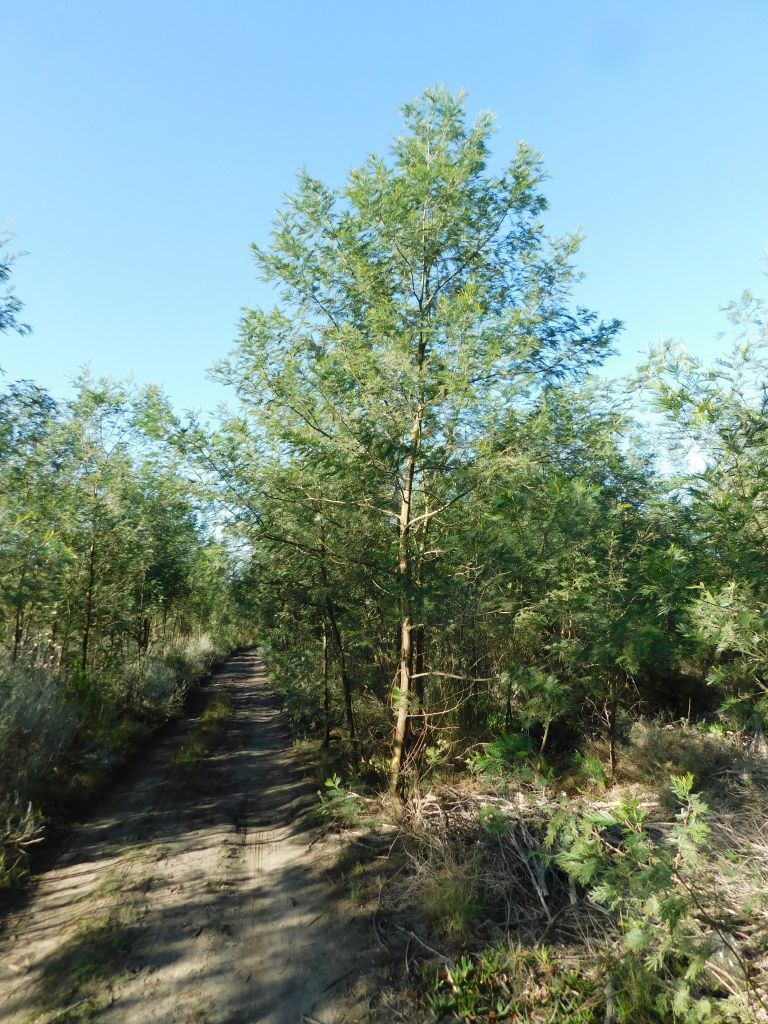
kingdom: Plantae
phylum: Tracheophyta
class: Magnoliopsida
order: Fabales
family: Fabaceae
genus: Acacia
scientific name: Acacia mearnsii
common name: Black wattle
